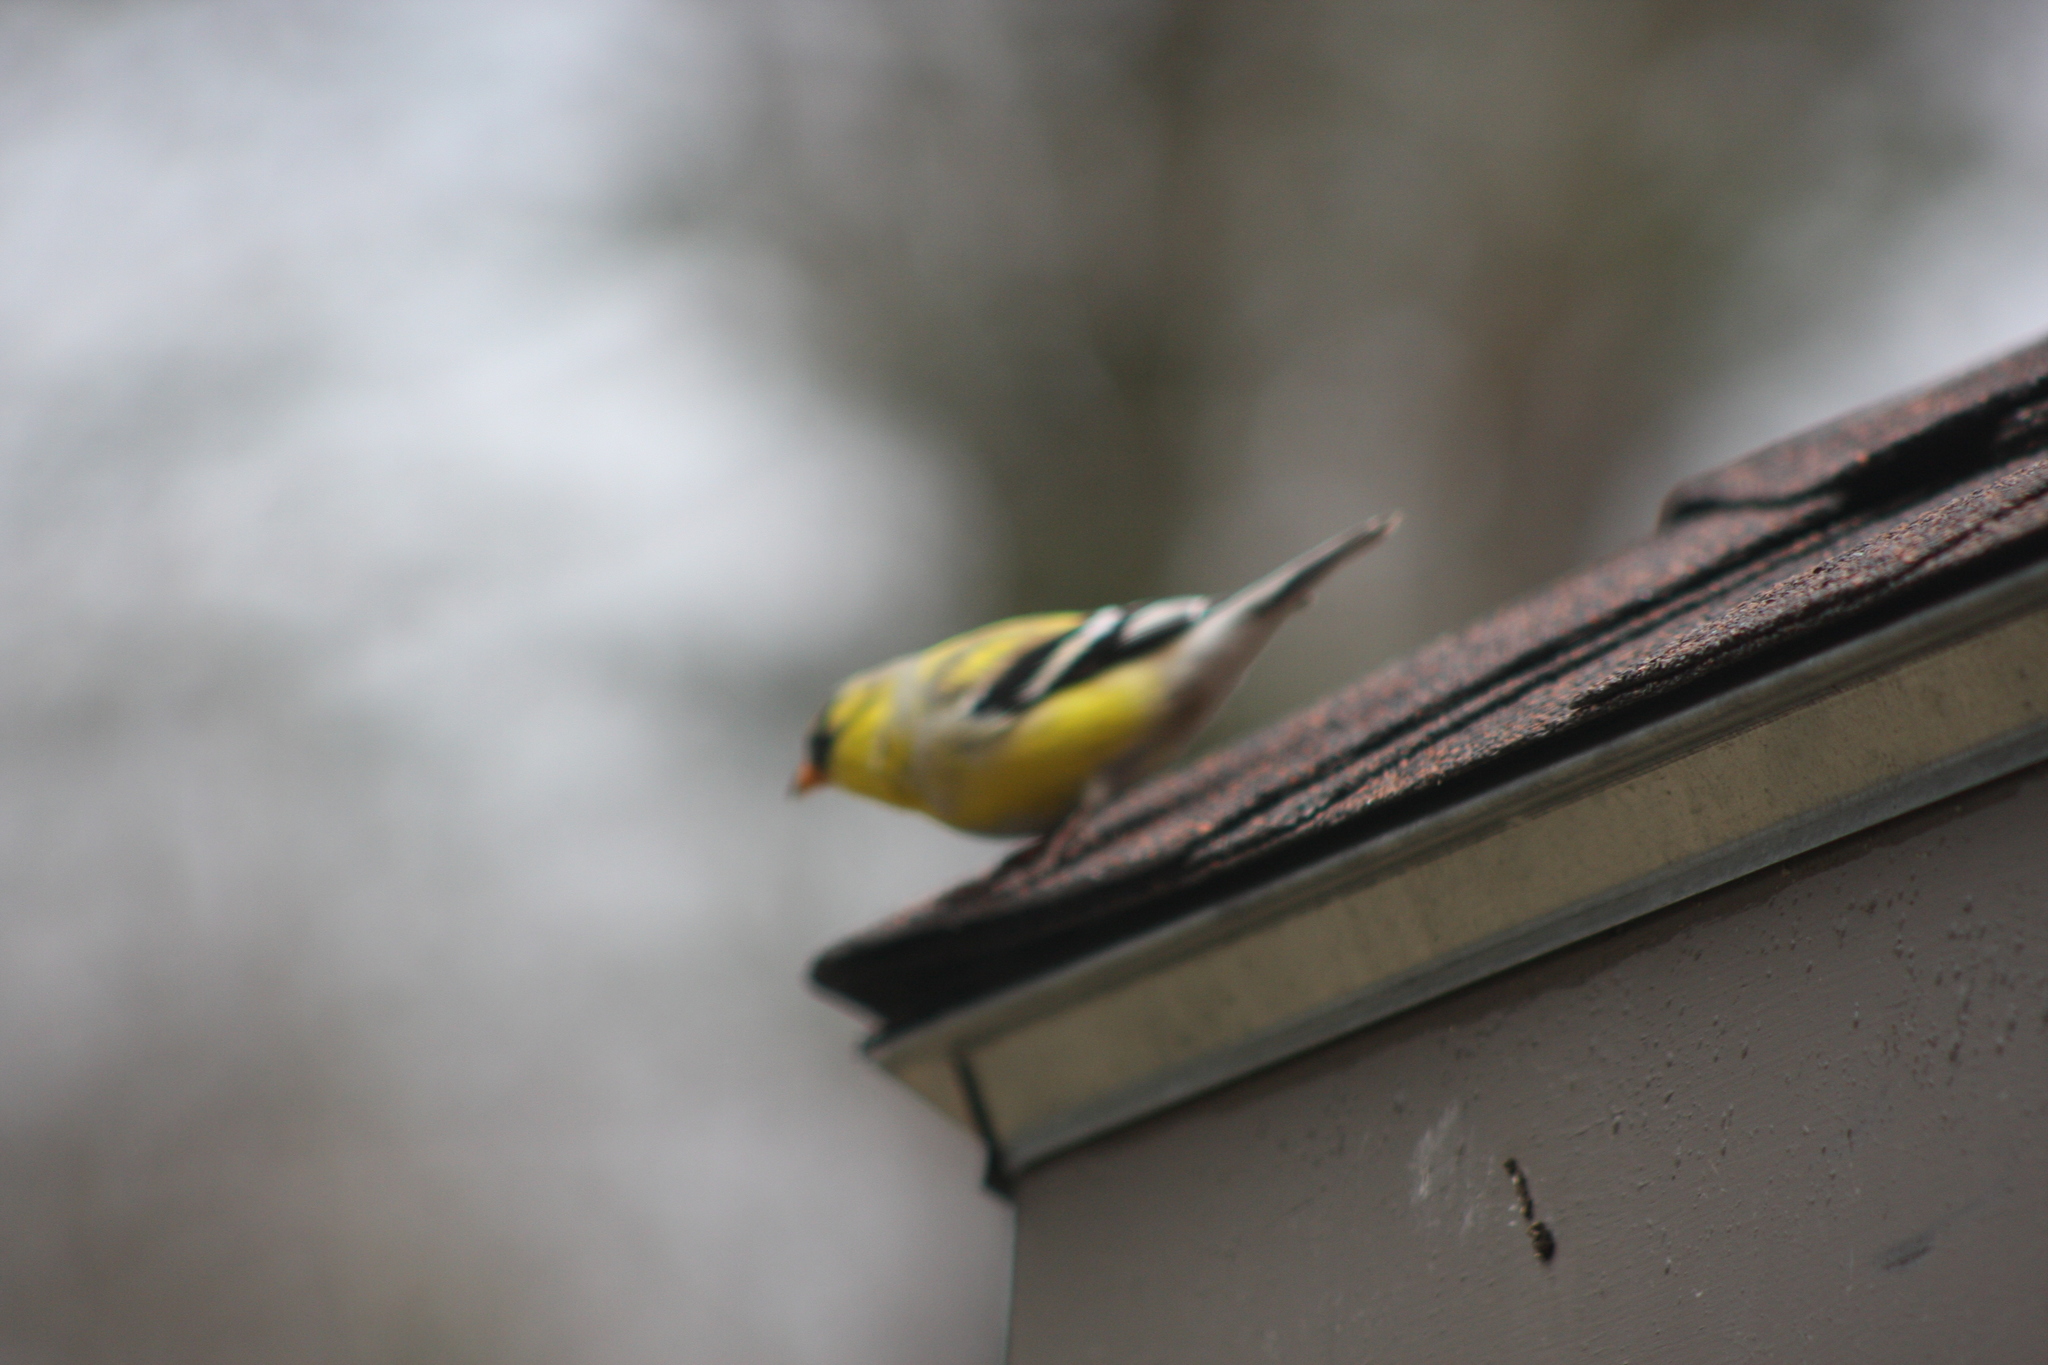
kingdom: Animalia
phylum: Chordata
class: Aves
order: Passeriformes
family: Fringillidae
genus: Spinus
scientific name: Spinus tristis
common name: American goldfinch
